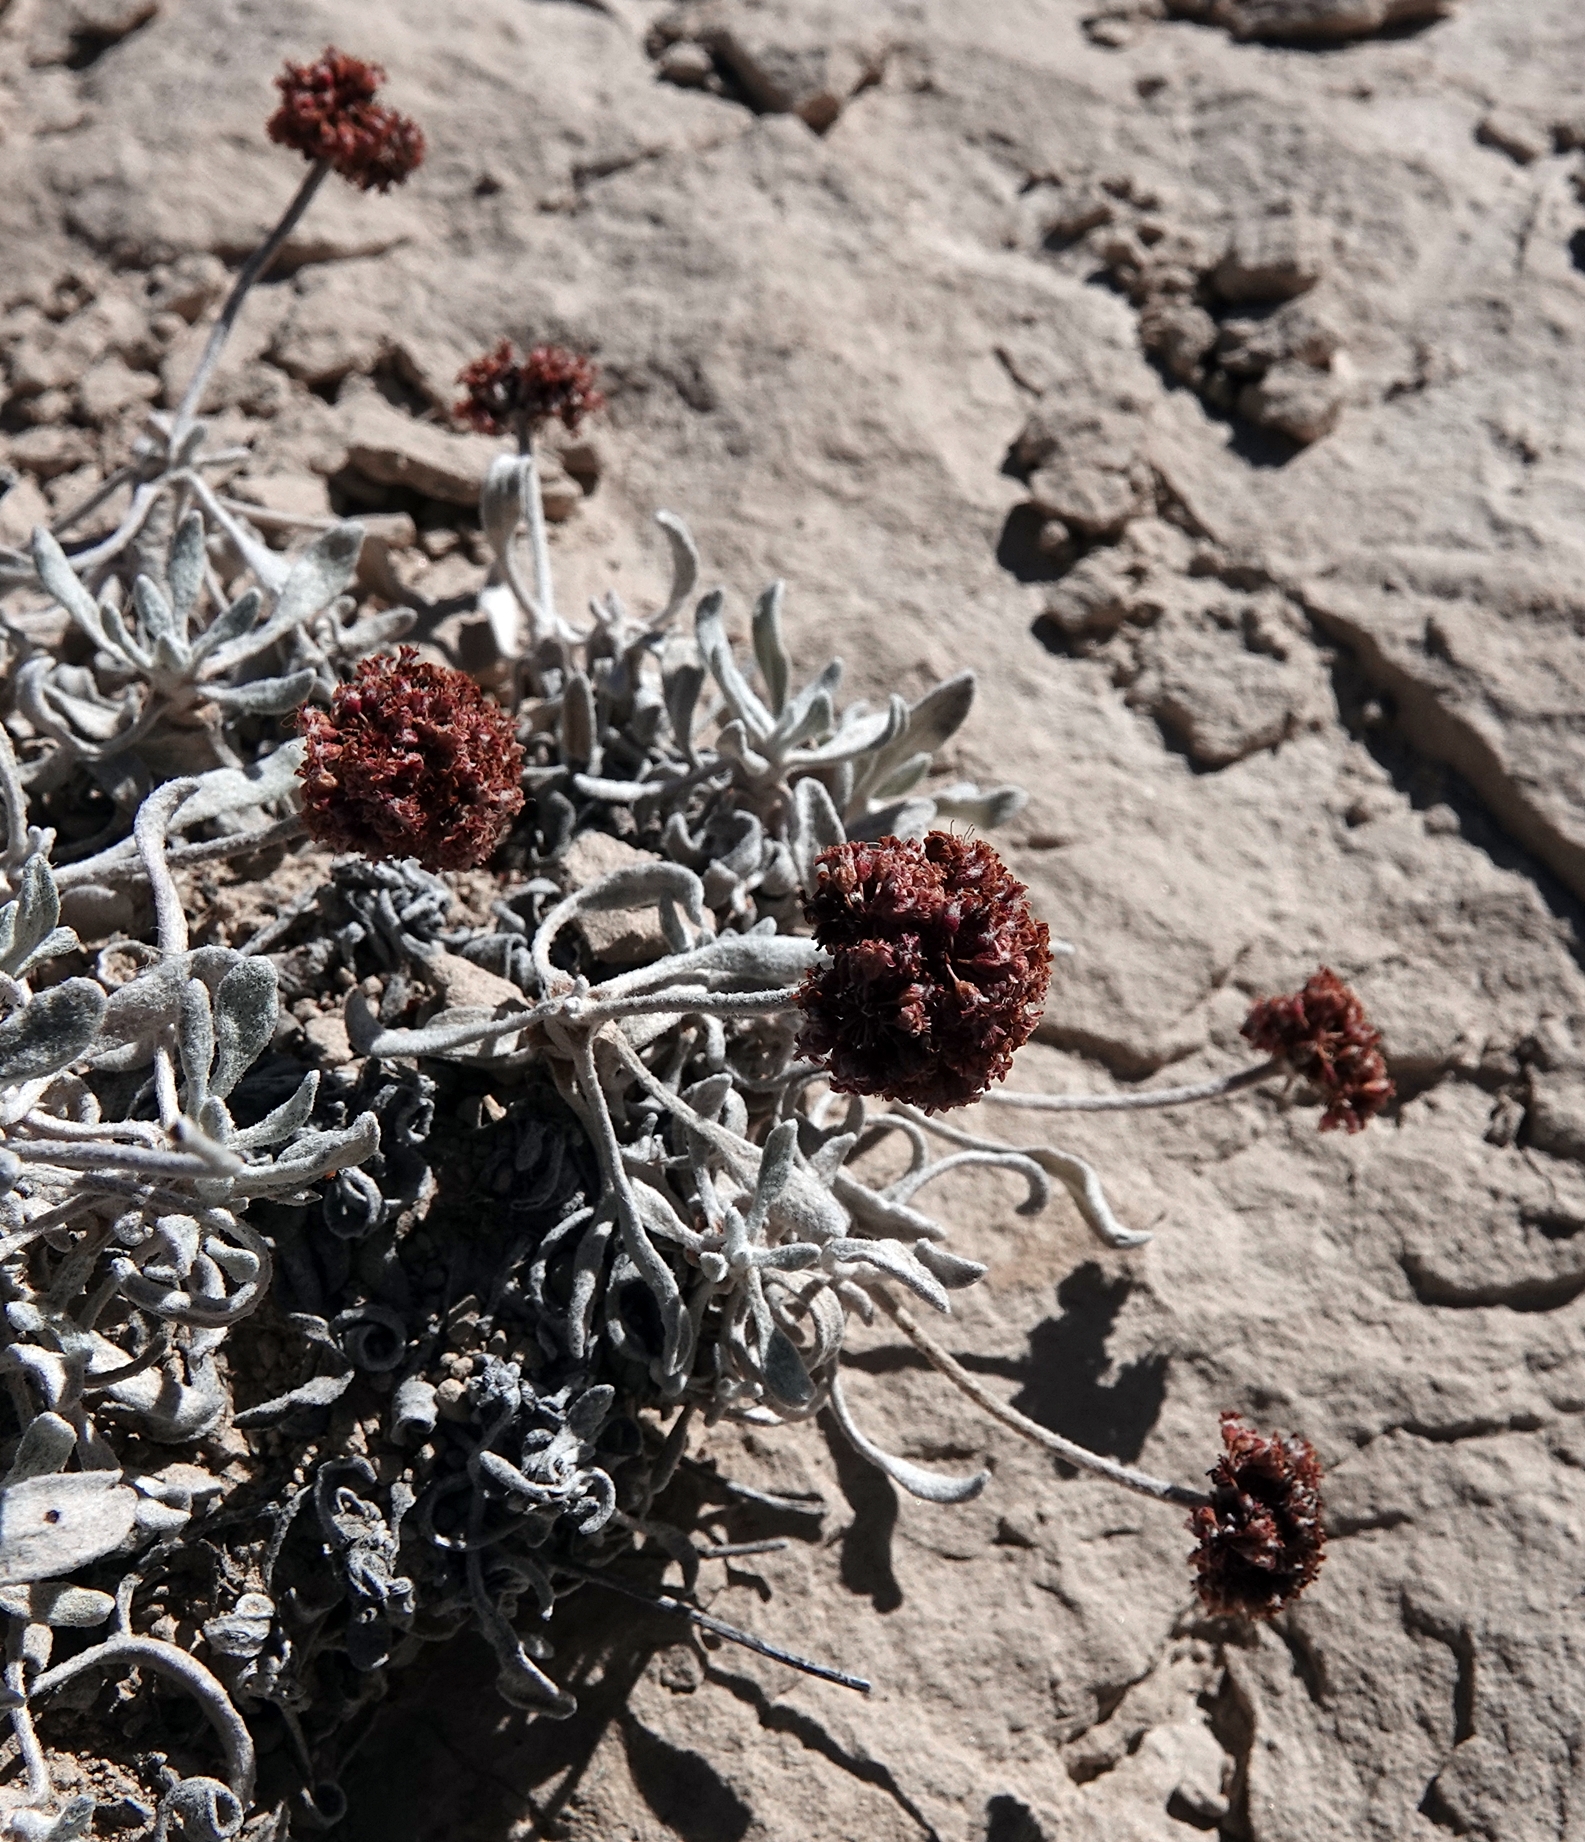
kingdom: Plantae
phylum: Tracheophyta
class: Magnoliopsida
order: Caryophyllales
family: Polygonaceae
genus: Eriogonum
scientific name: Eriogonum pauciflorum
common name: Few-flower wild buckwheat
